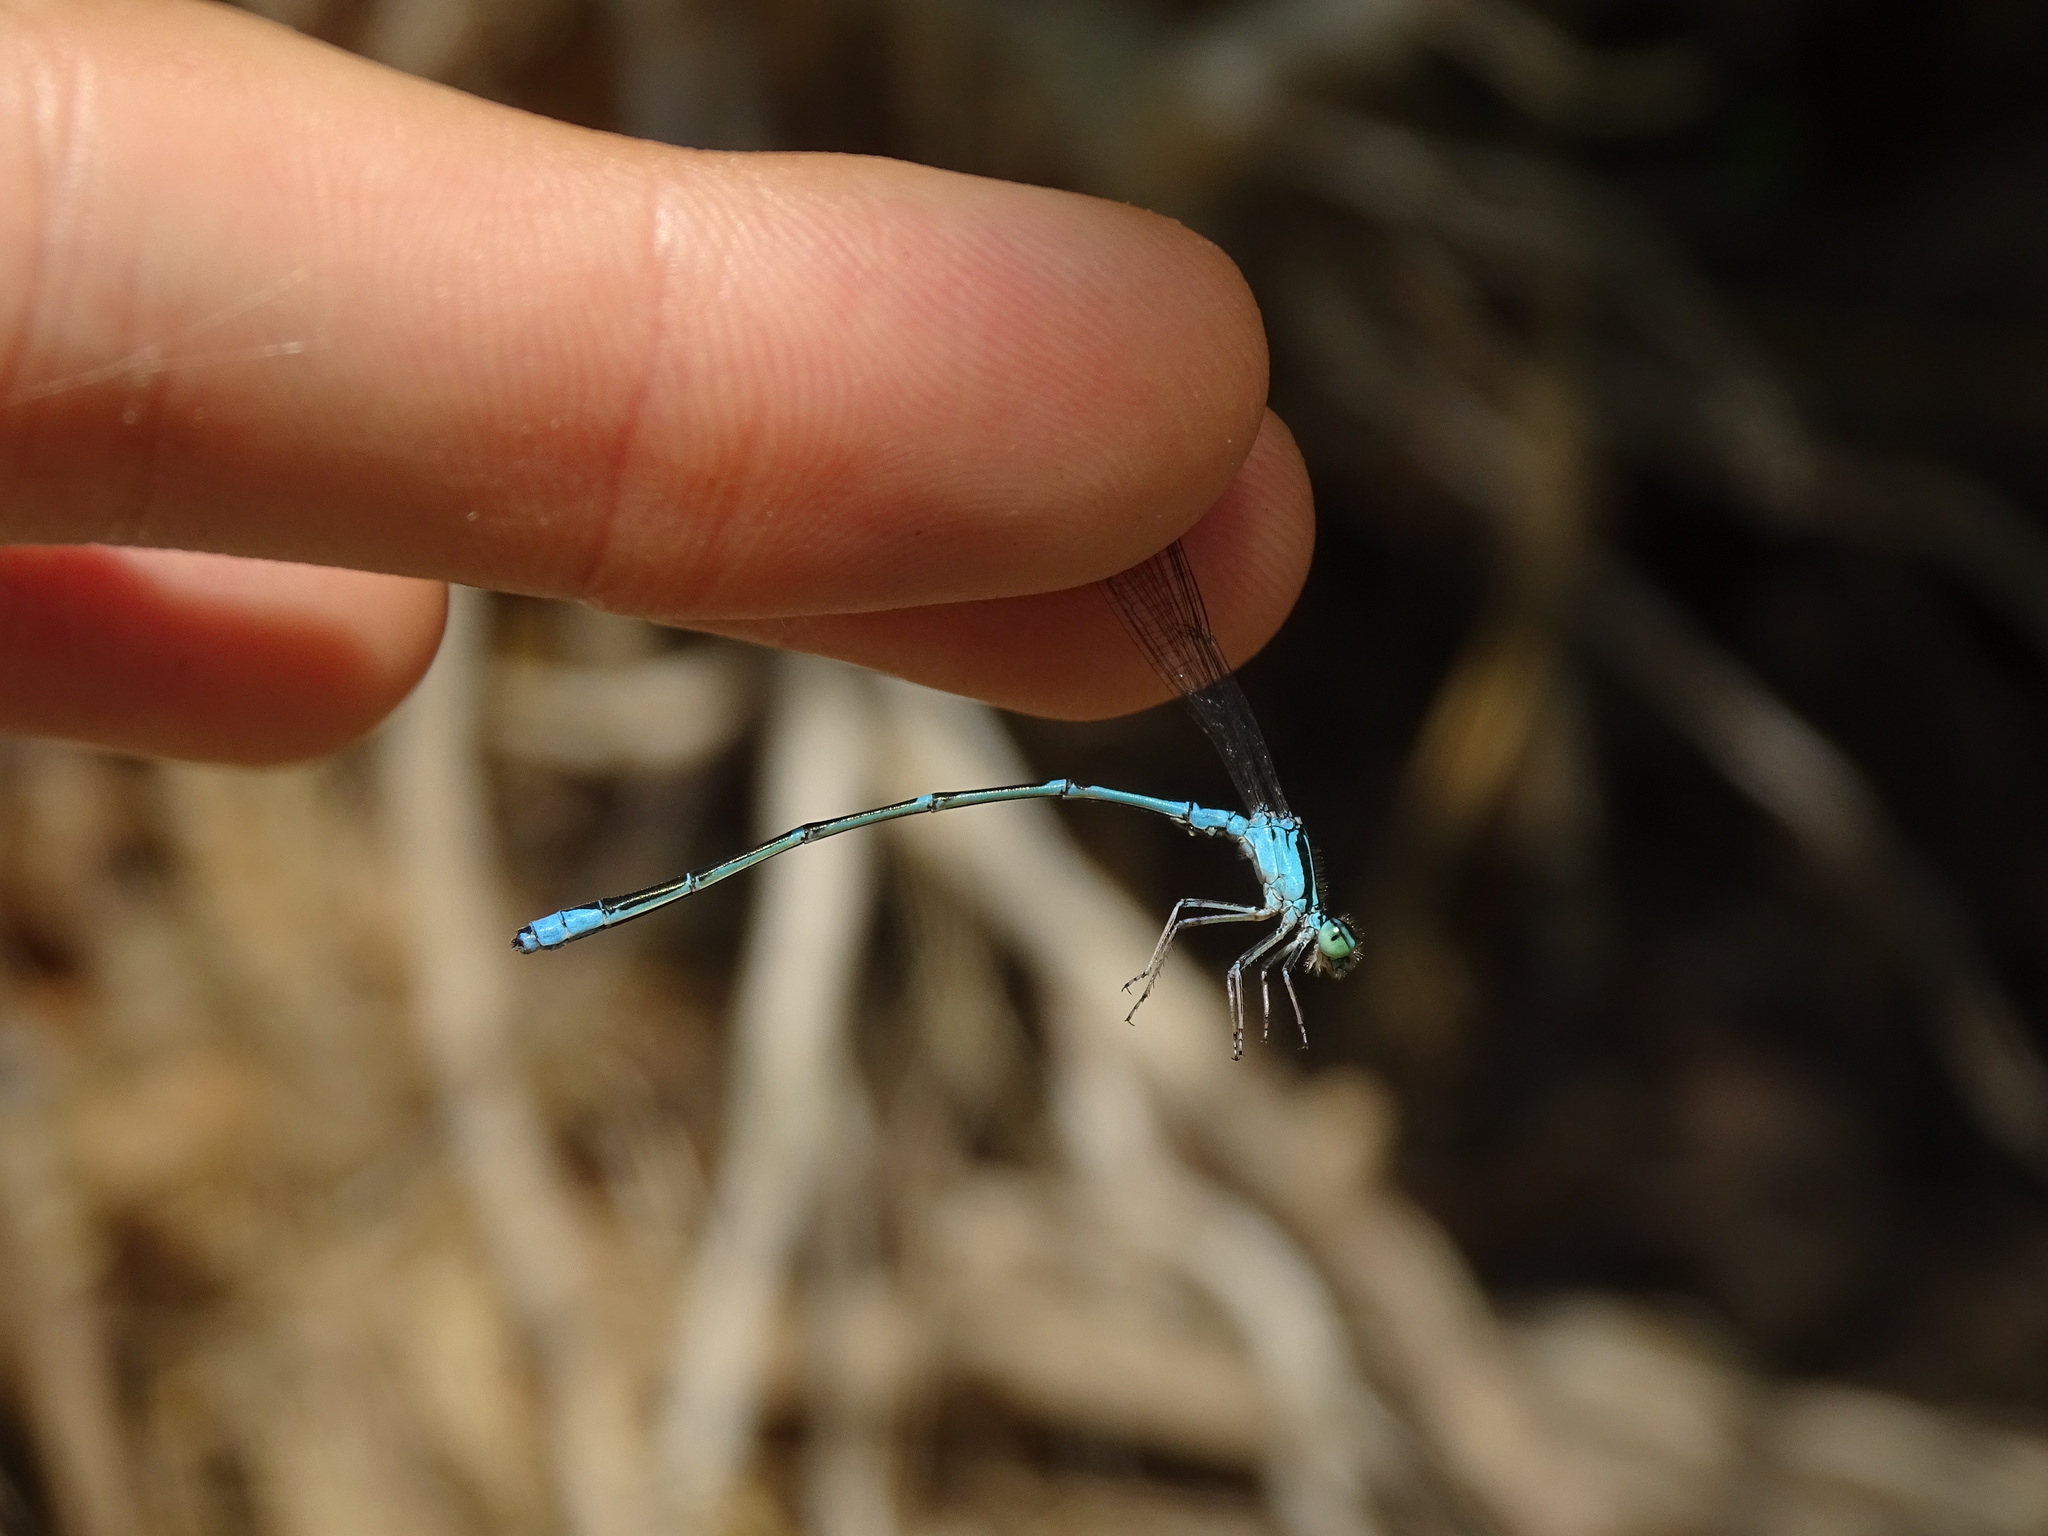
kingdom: Animalia
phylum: Arthropoda
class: Insecta
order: Odonata
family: Coenagrionidae
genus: Enallagma
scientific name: Enallagma exsulans
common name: Stream bluet
